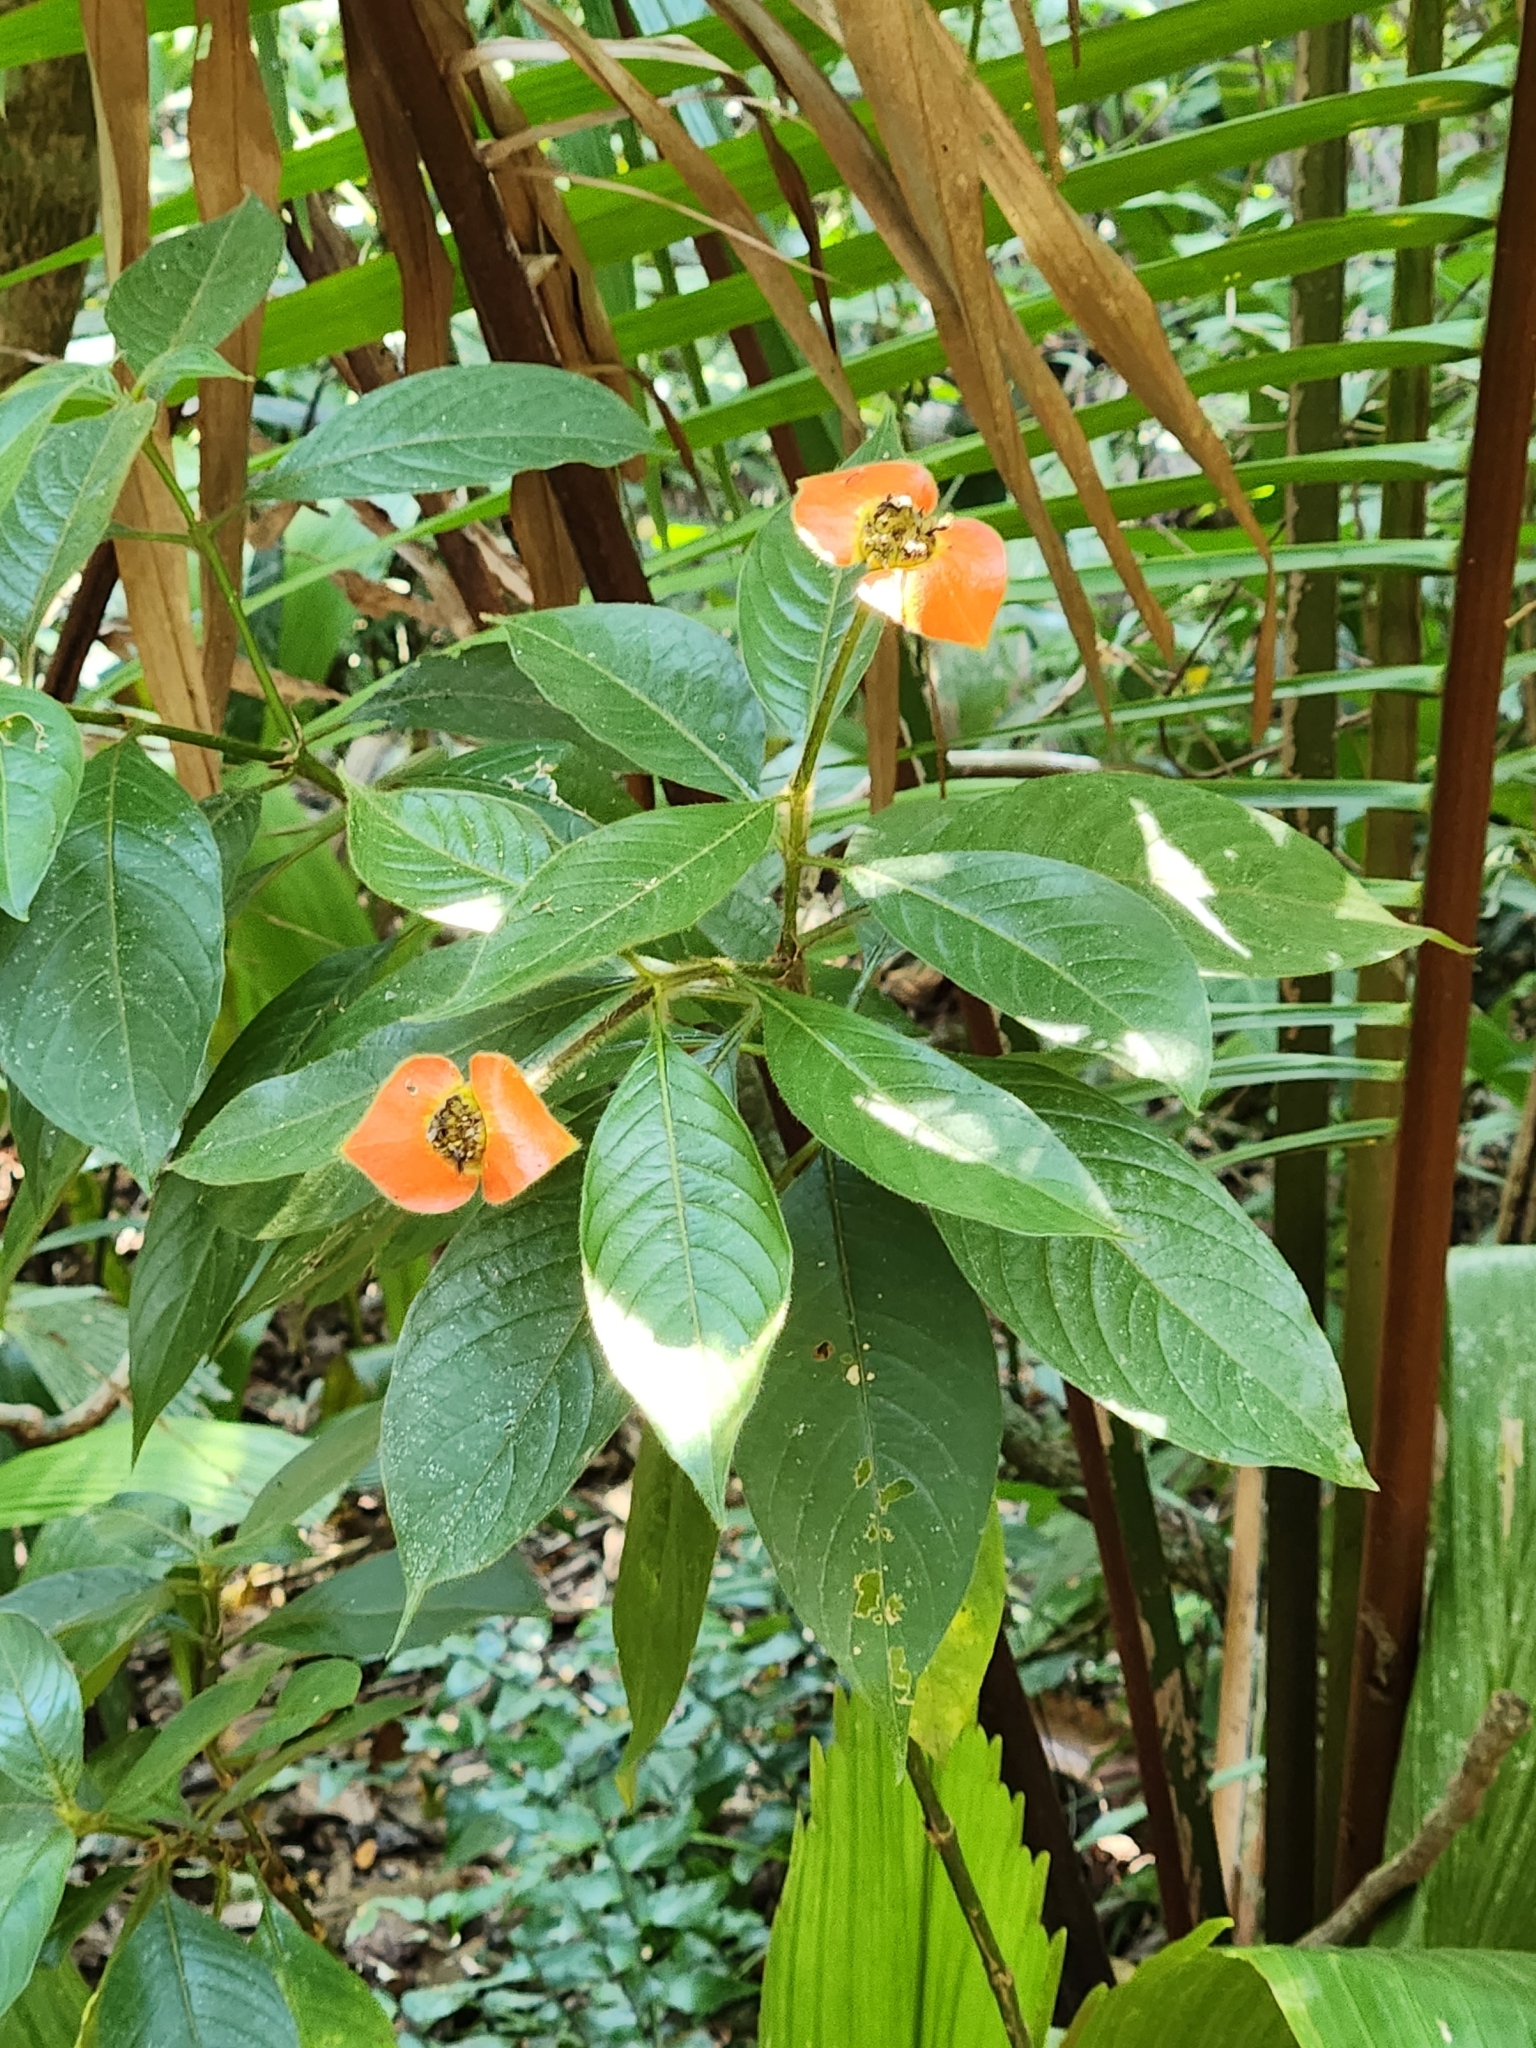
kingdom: Plantae
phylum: Tracheophyta
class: Magnoliopsida
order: Gentianales
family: Rubiaceae
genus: Palicourea
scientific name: Palicourea tomentosa
